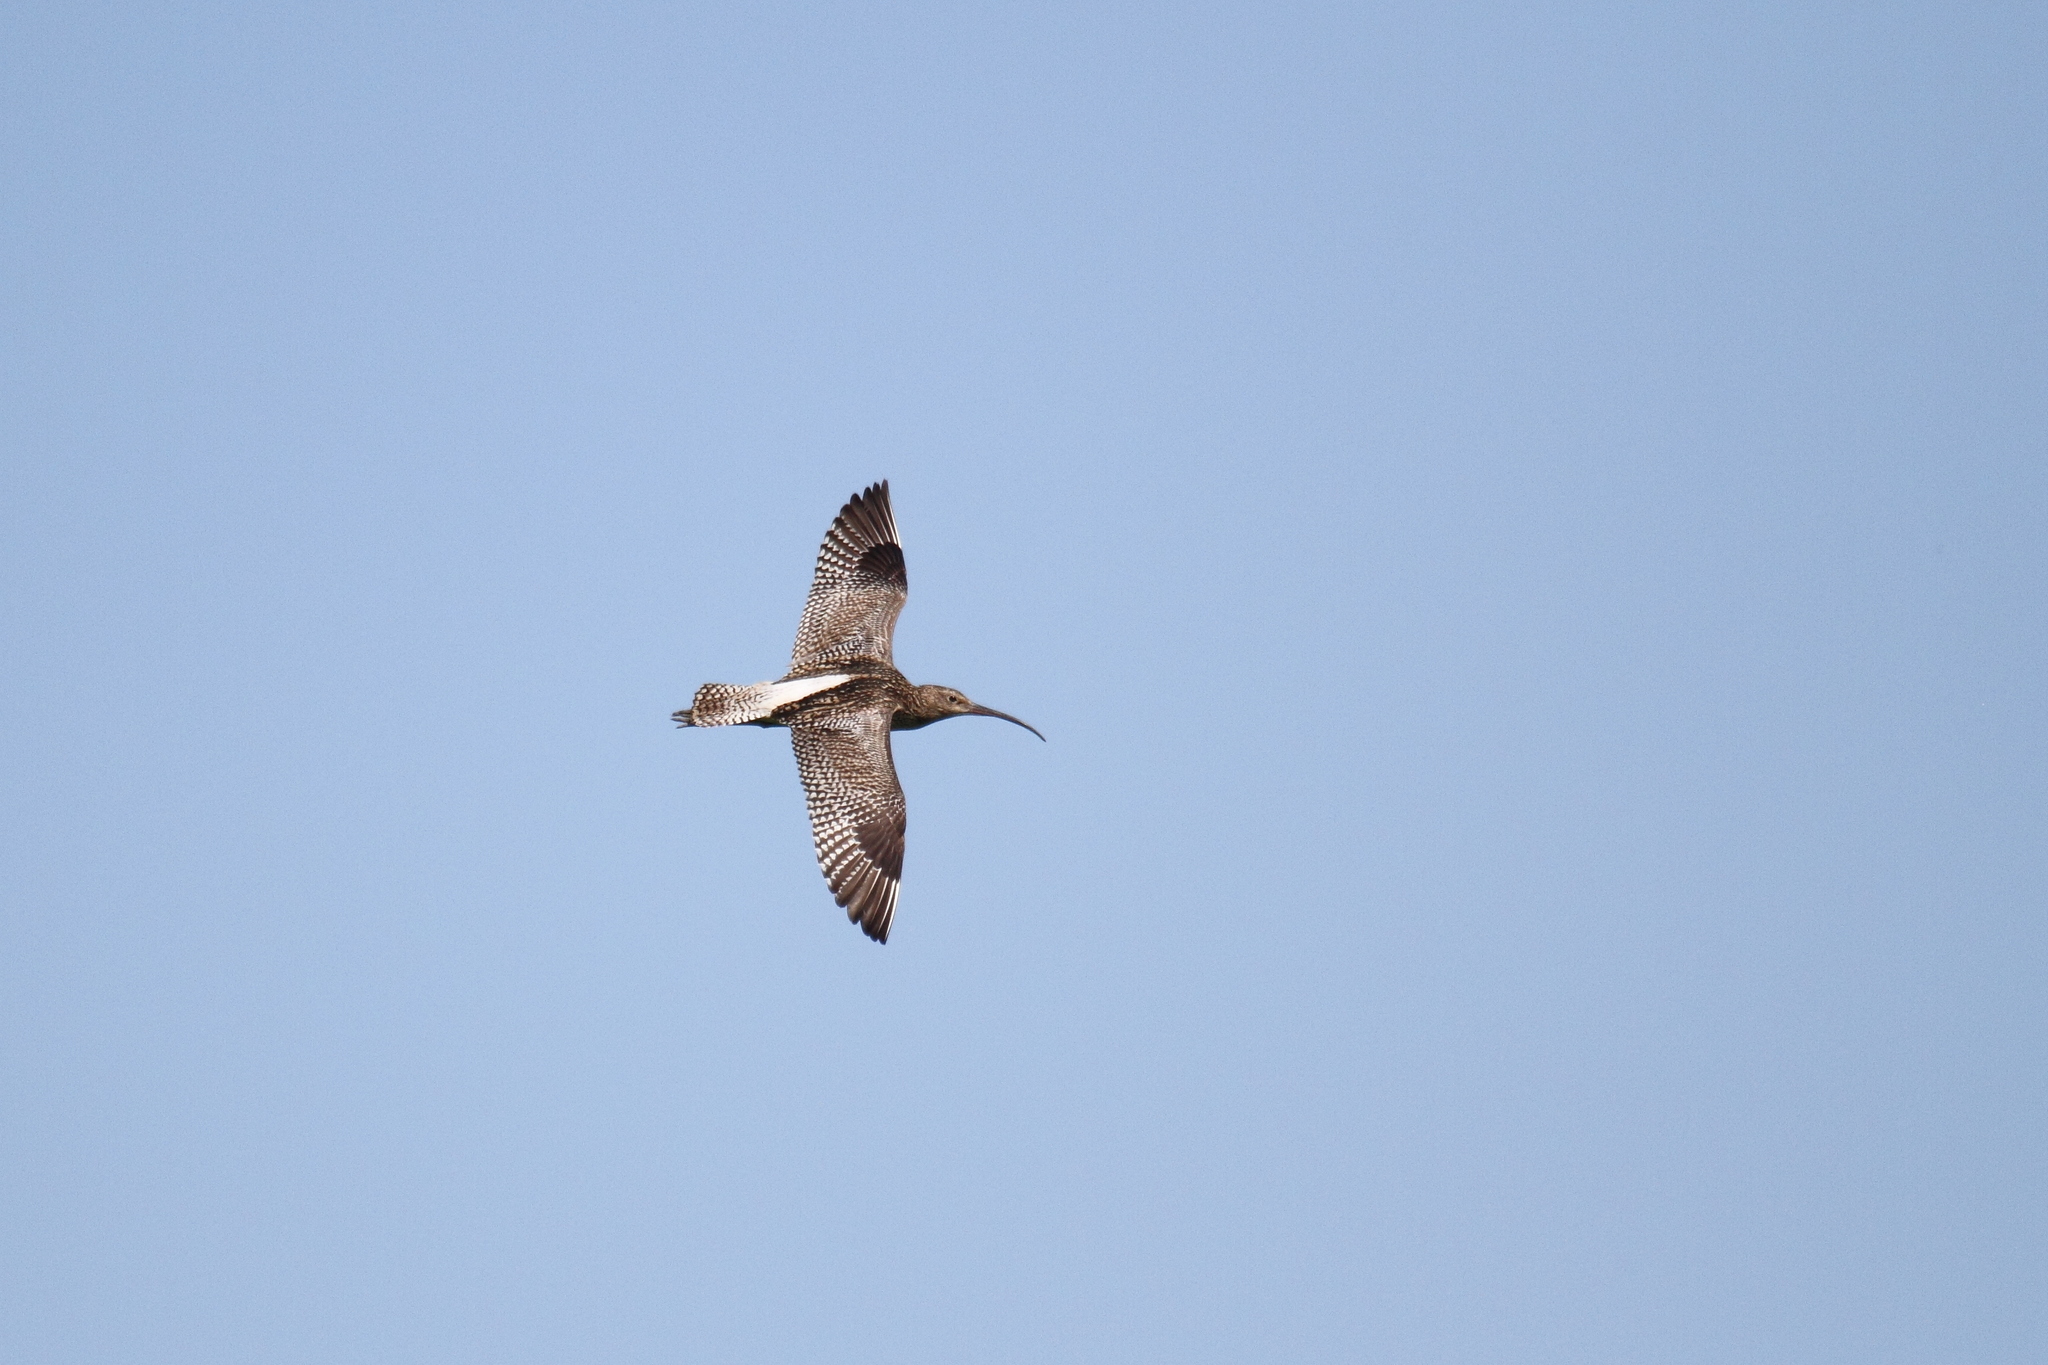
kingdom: Animalia
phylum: Chordata
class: Aves
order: Charadriiformes
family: Scolopacidae
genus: Numenius
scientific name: Numenius arquata
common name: Eurasian curlew
